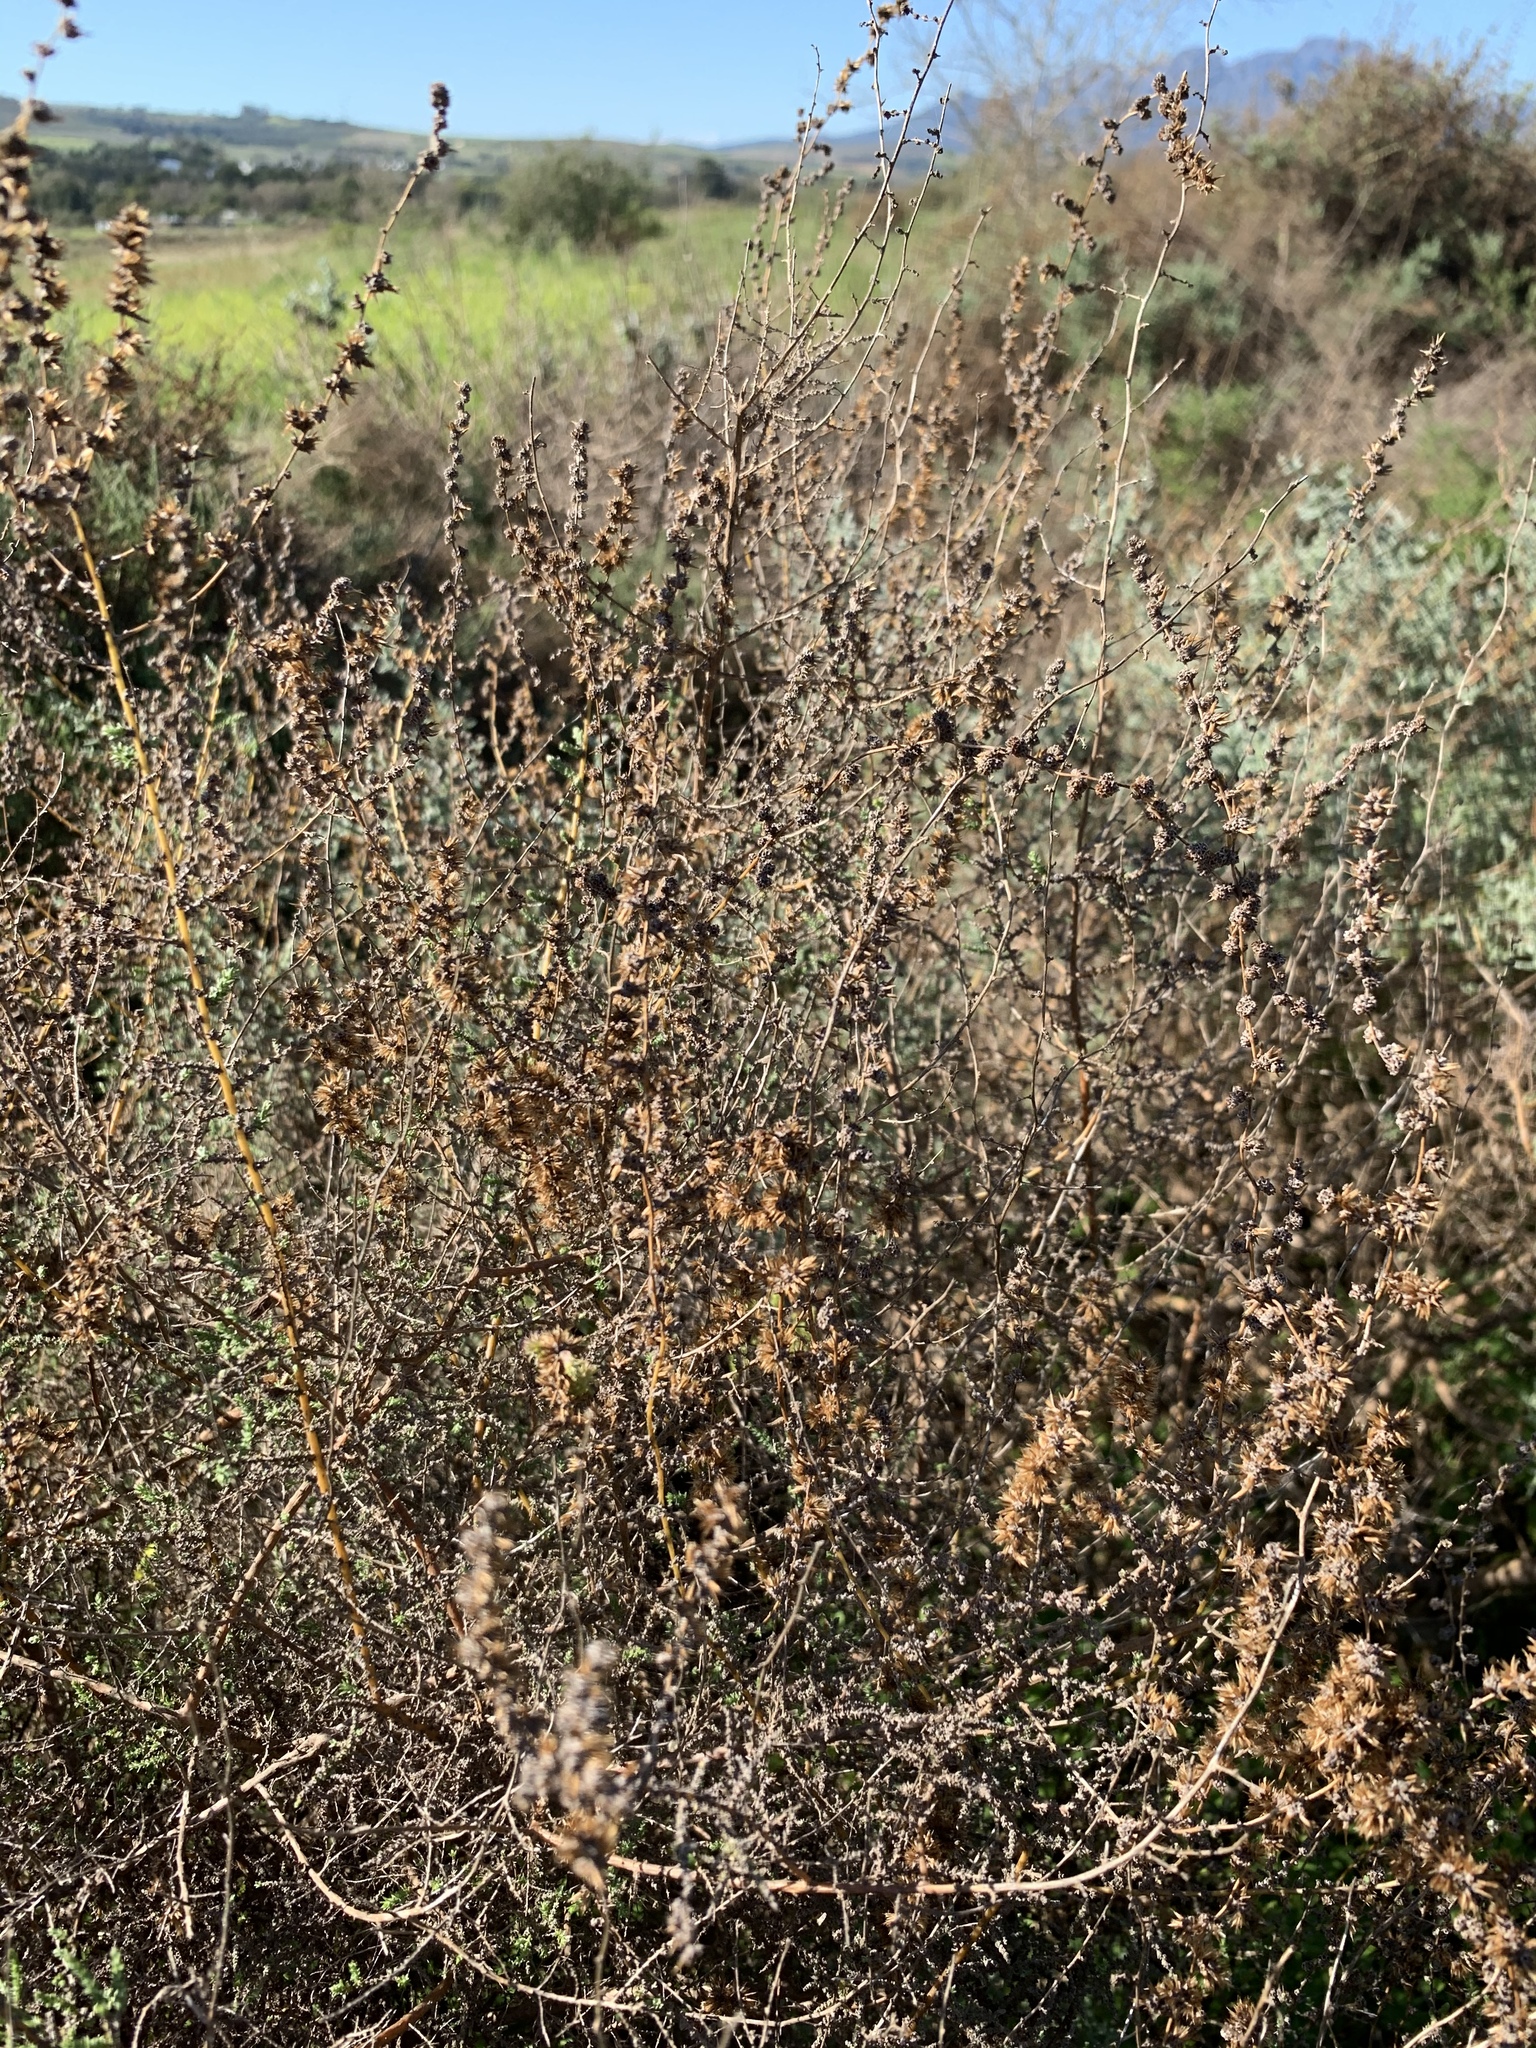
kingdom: Plantae
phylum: Tracheophyta
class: Magnoliopsida
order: Asterales
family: Asteraceae
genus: Seriphium
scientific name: Seriphium plumosum
